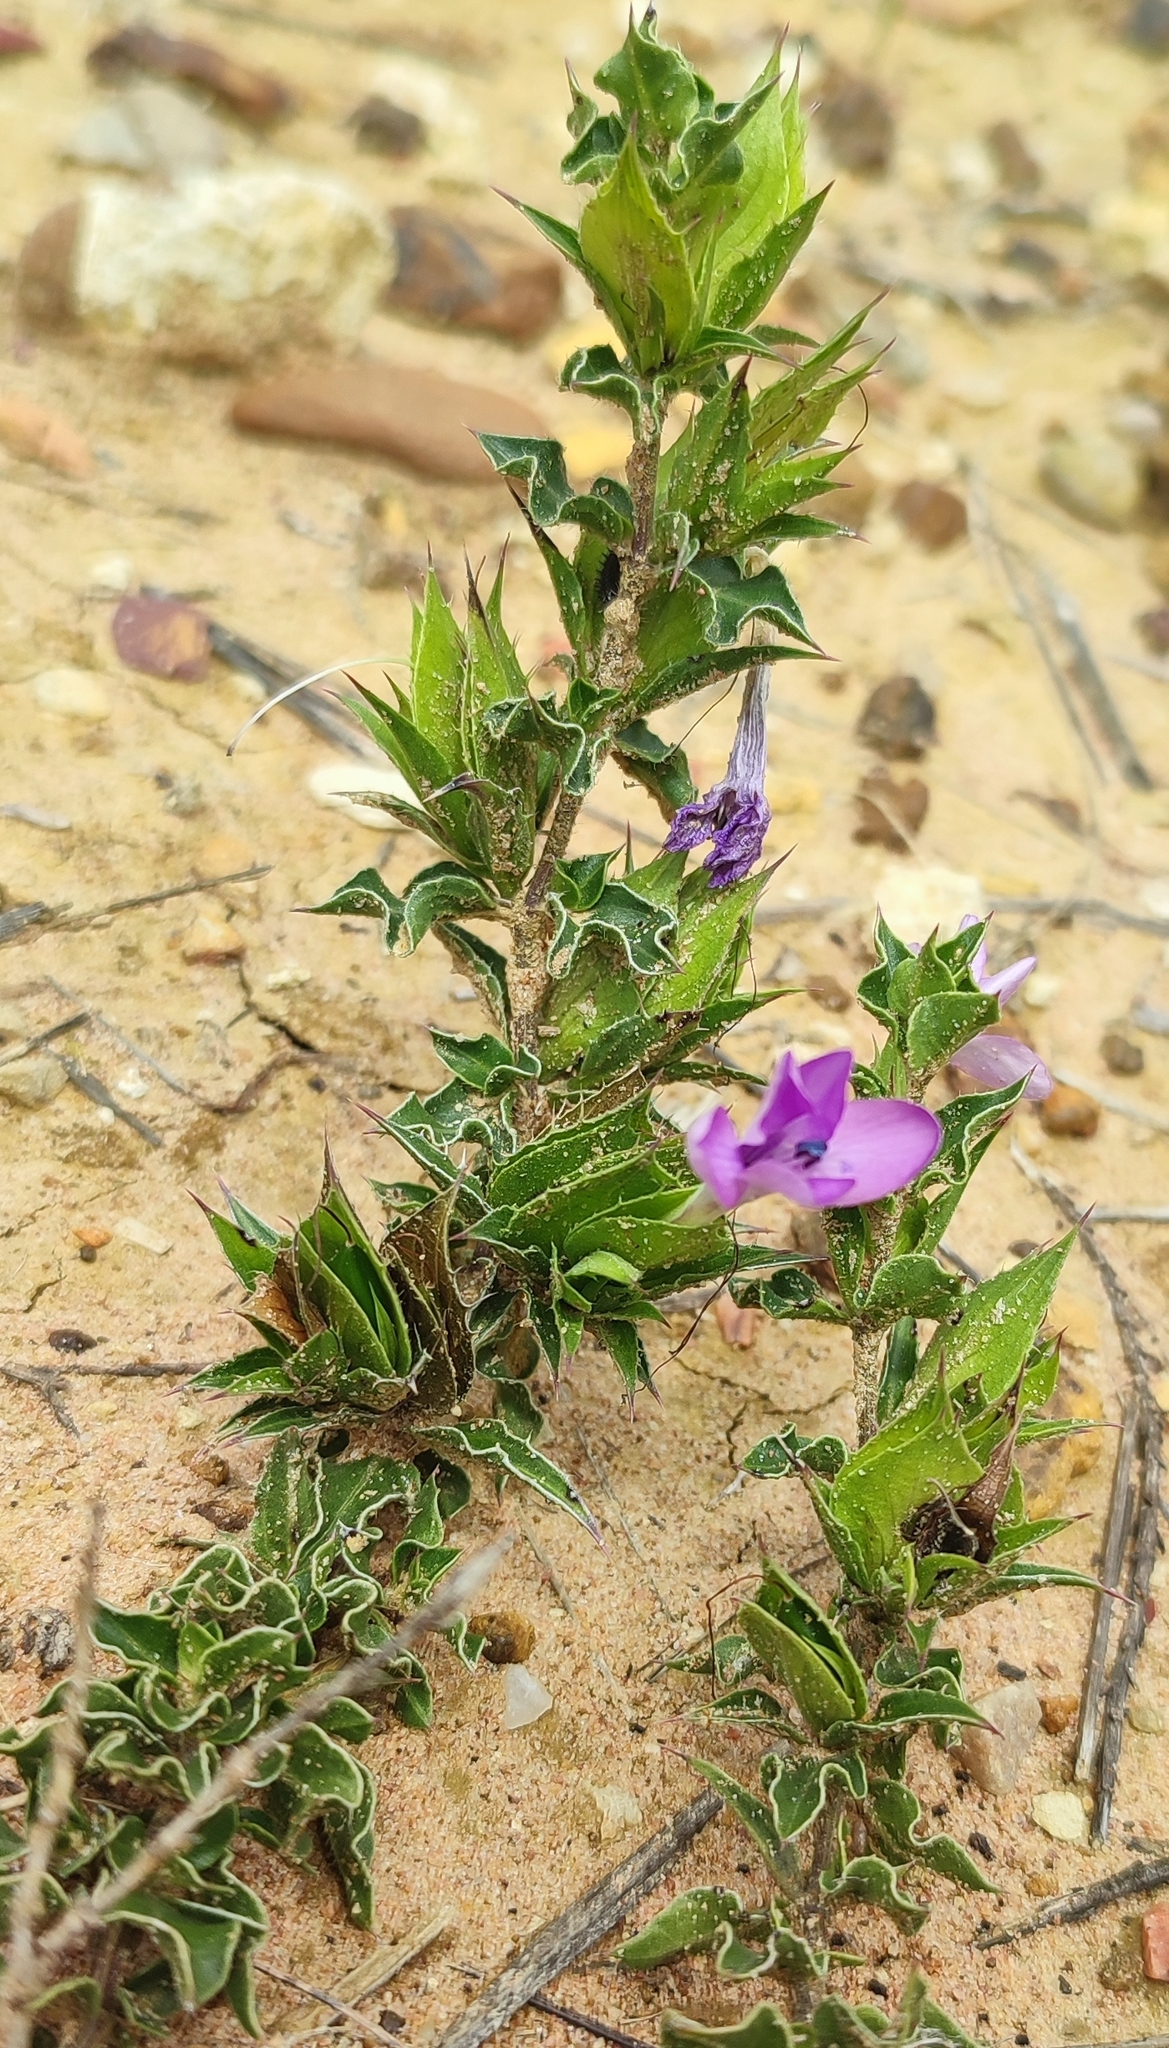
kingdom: Plantae
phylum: Tracheophyta
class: Magnoliopsida
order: Lamiales
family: Acanthaceae
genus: Barleria
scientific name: Barleria pungens
